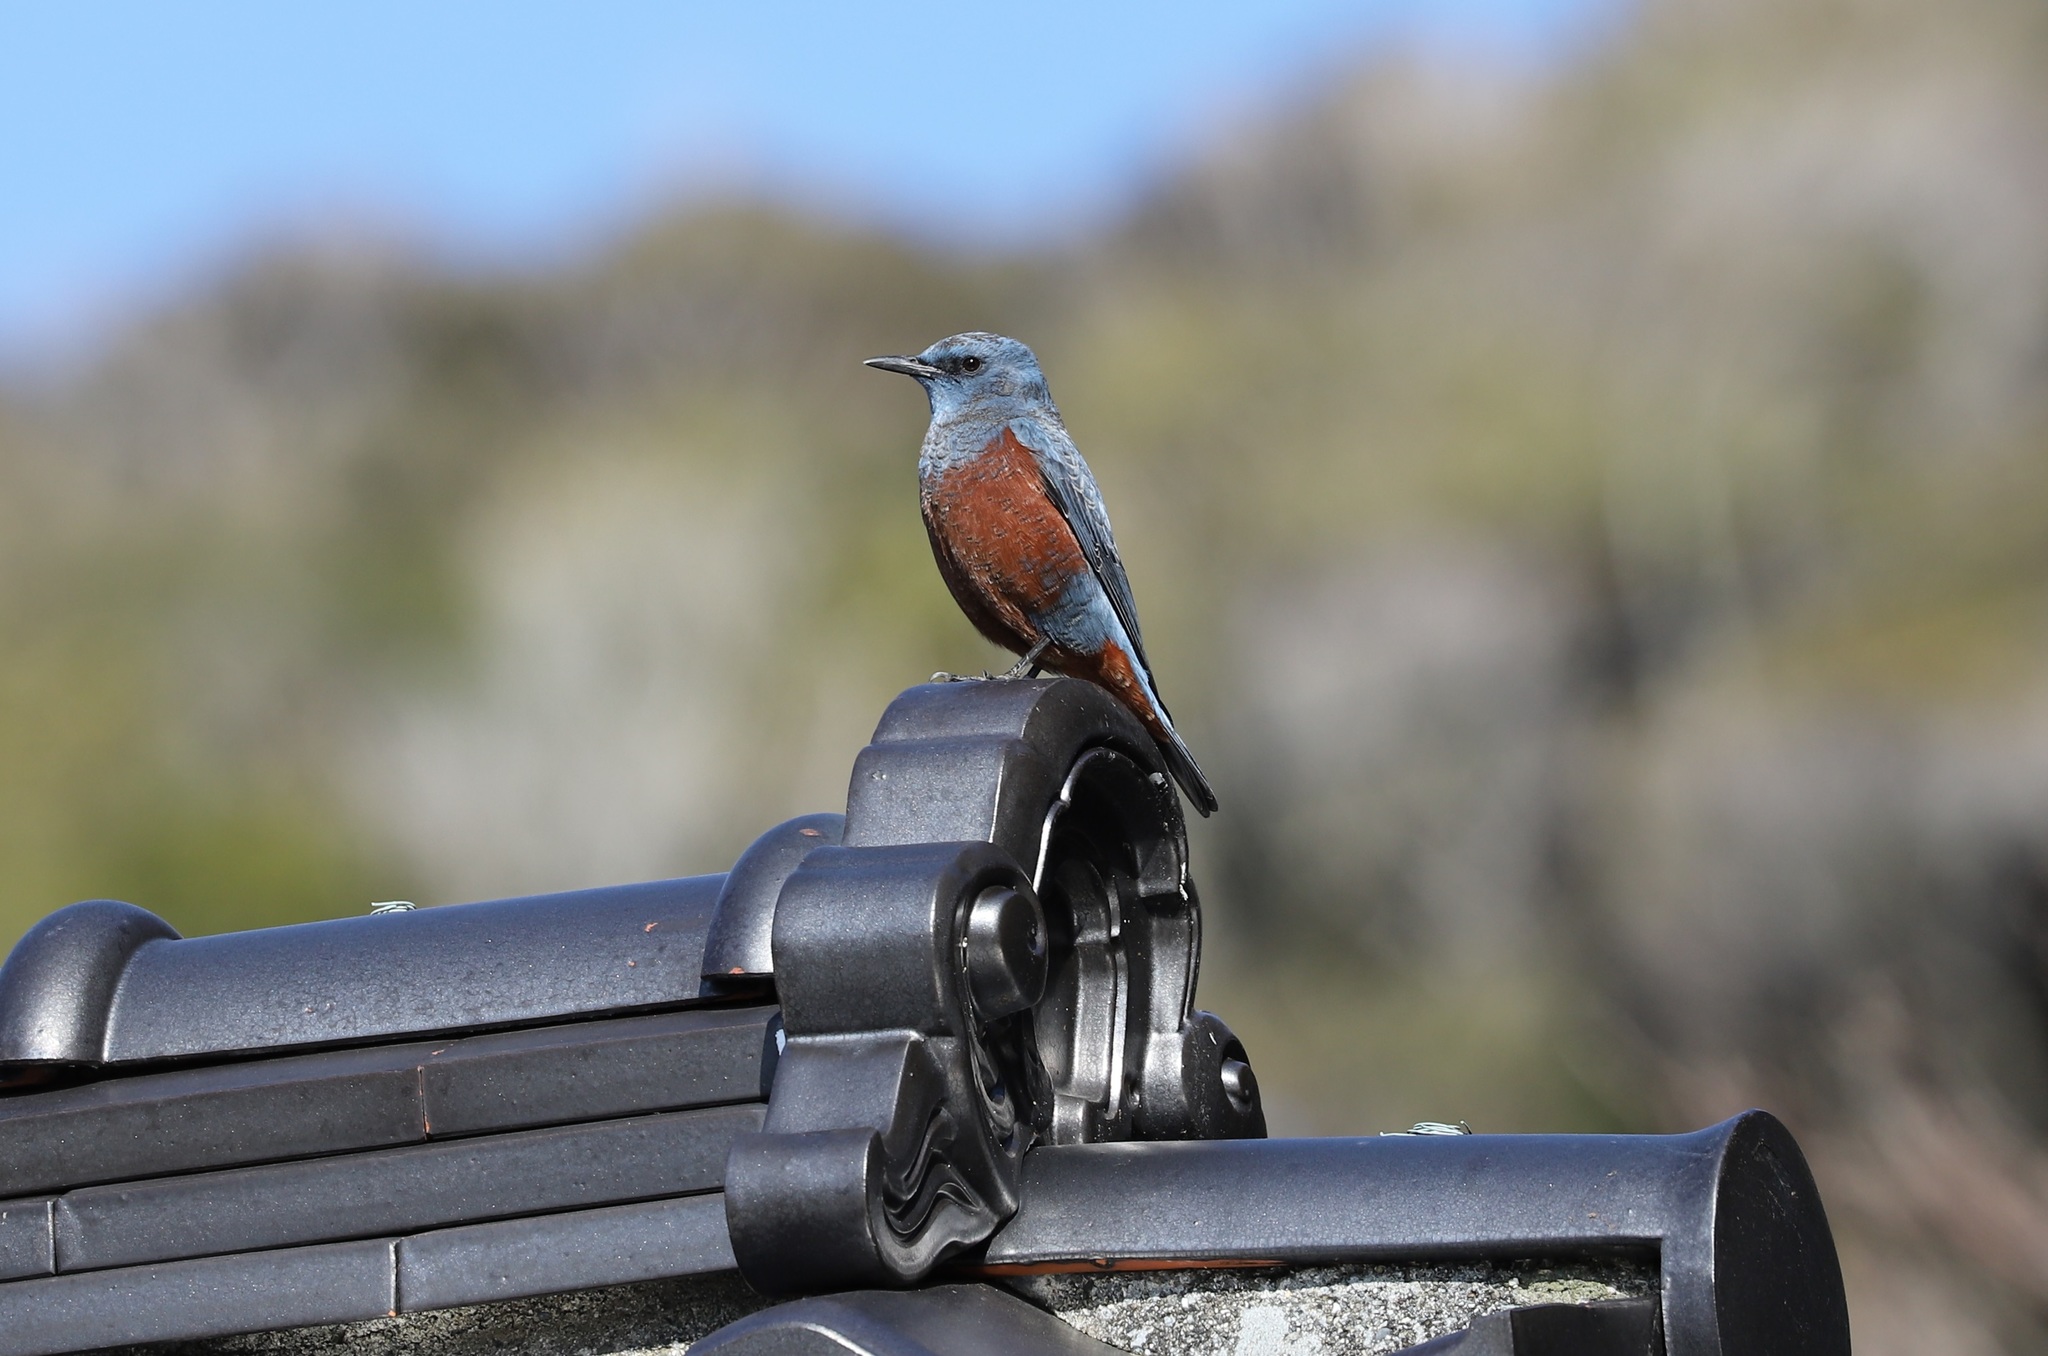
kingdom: Animalia
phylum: Chordata
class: Aves
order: Passeriformes
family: Muscicapidae
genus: Monticola
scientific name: Monticola solitarius
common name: Blue rock thrush
